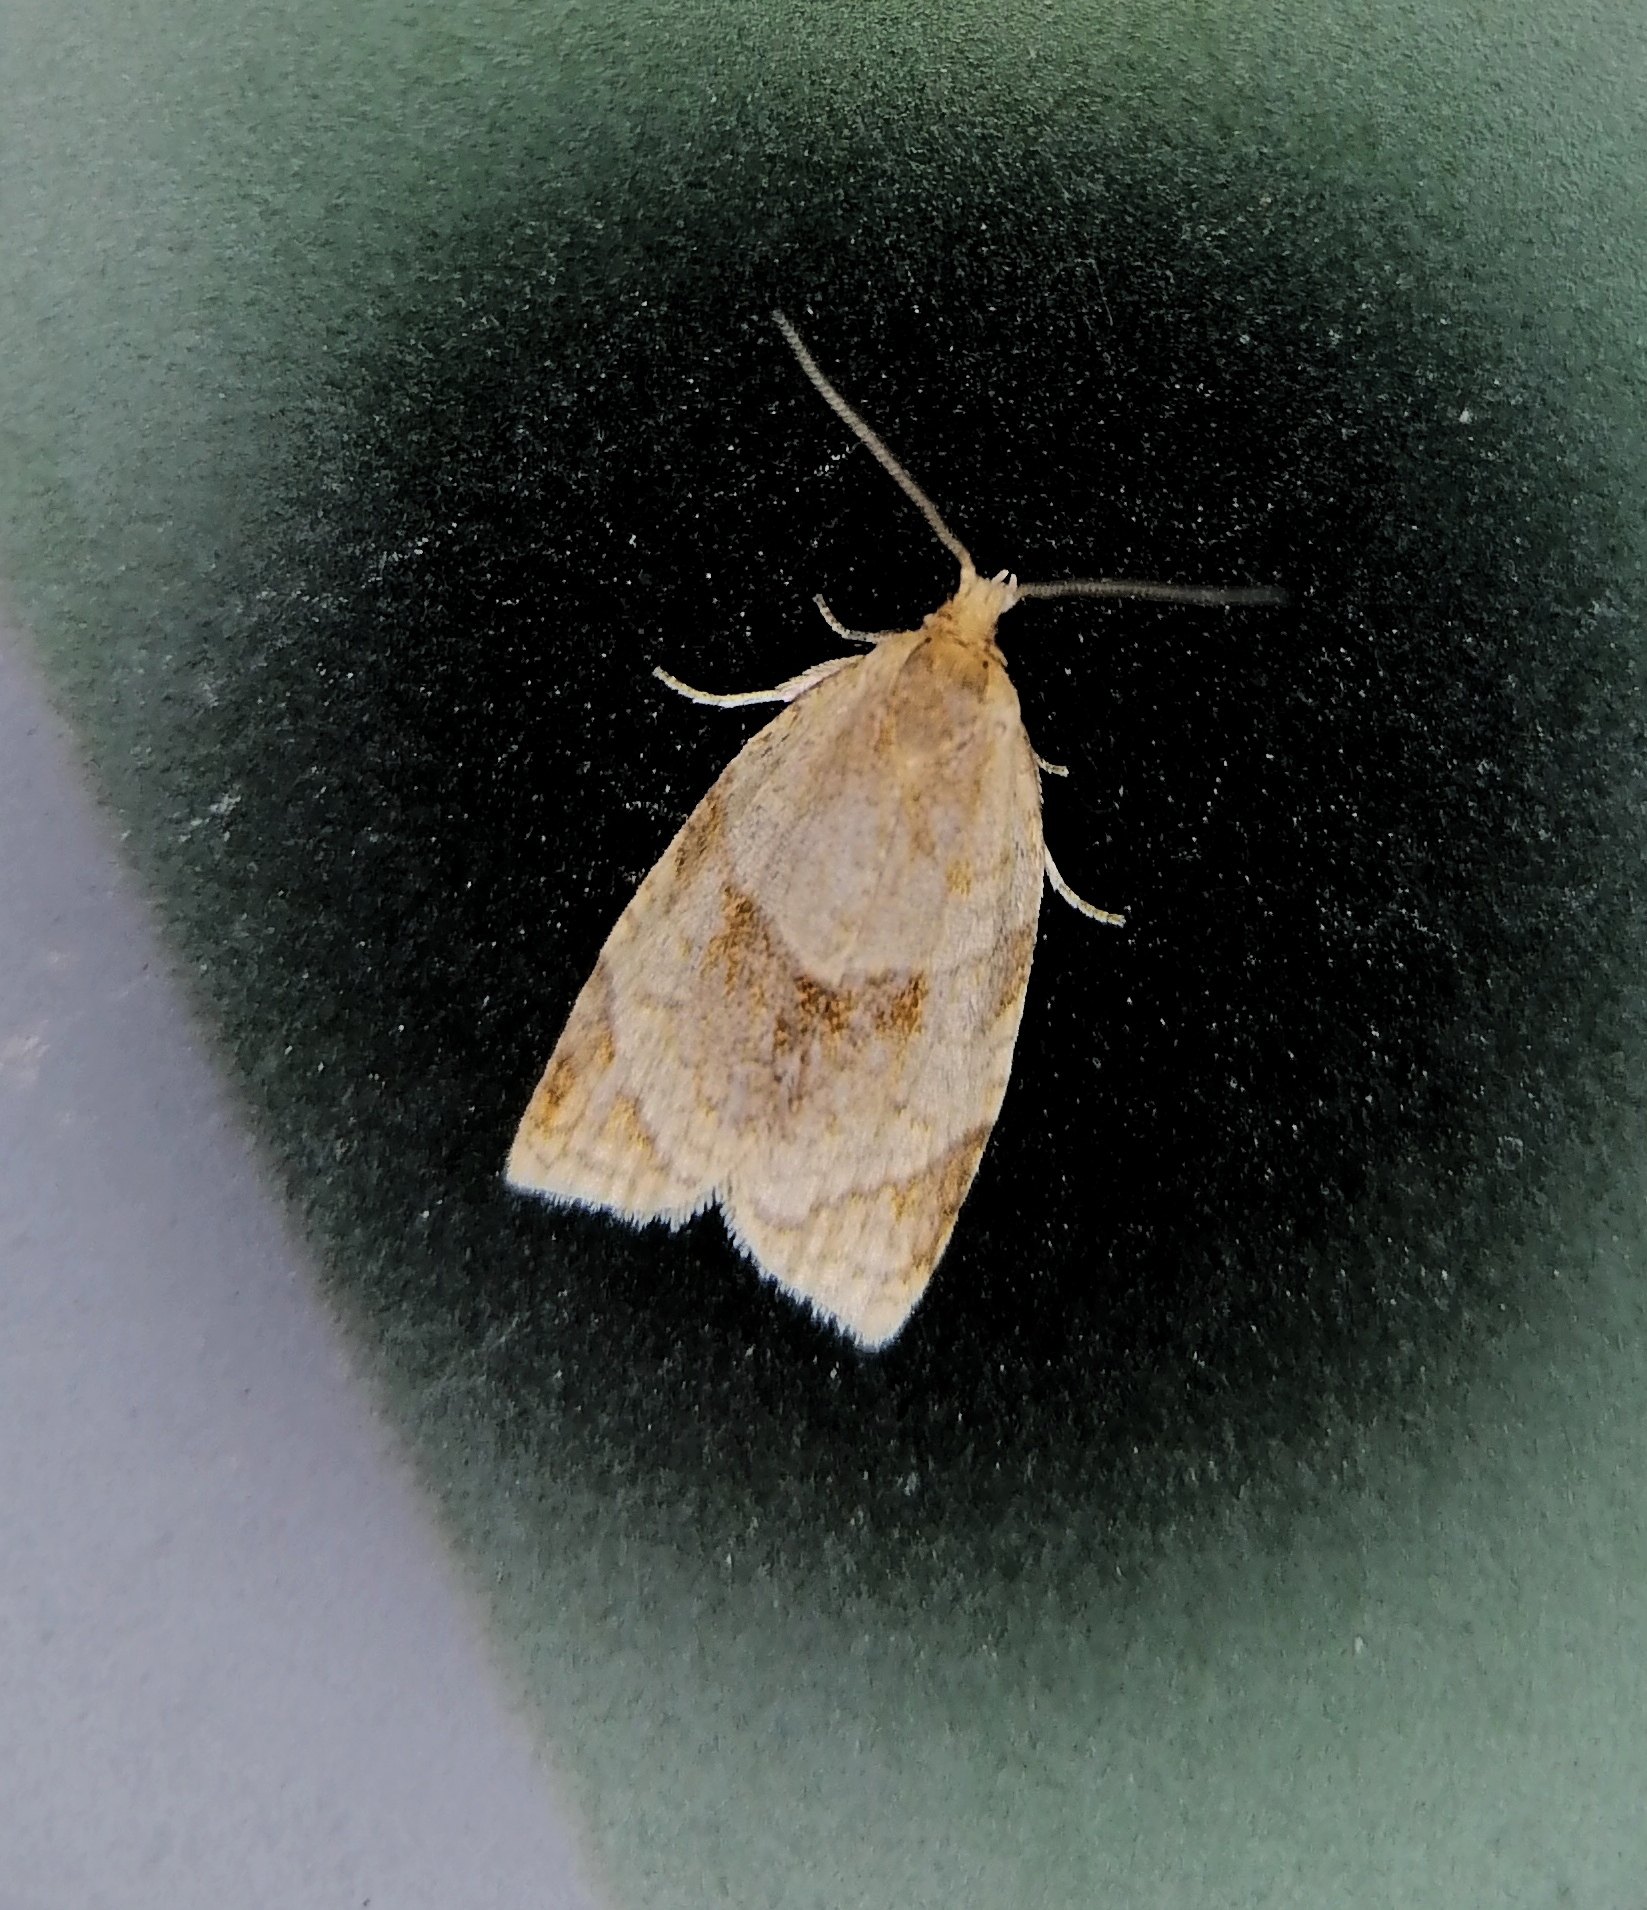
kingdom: Animalia
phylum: Arthropoda
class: Insecta
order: Lepidoptera
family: Tortricidae
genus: Clepsis
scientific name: Clepsis rurinana
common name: Pale twist
